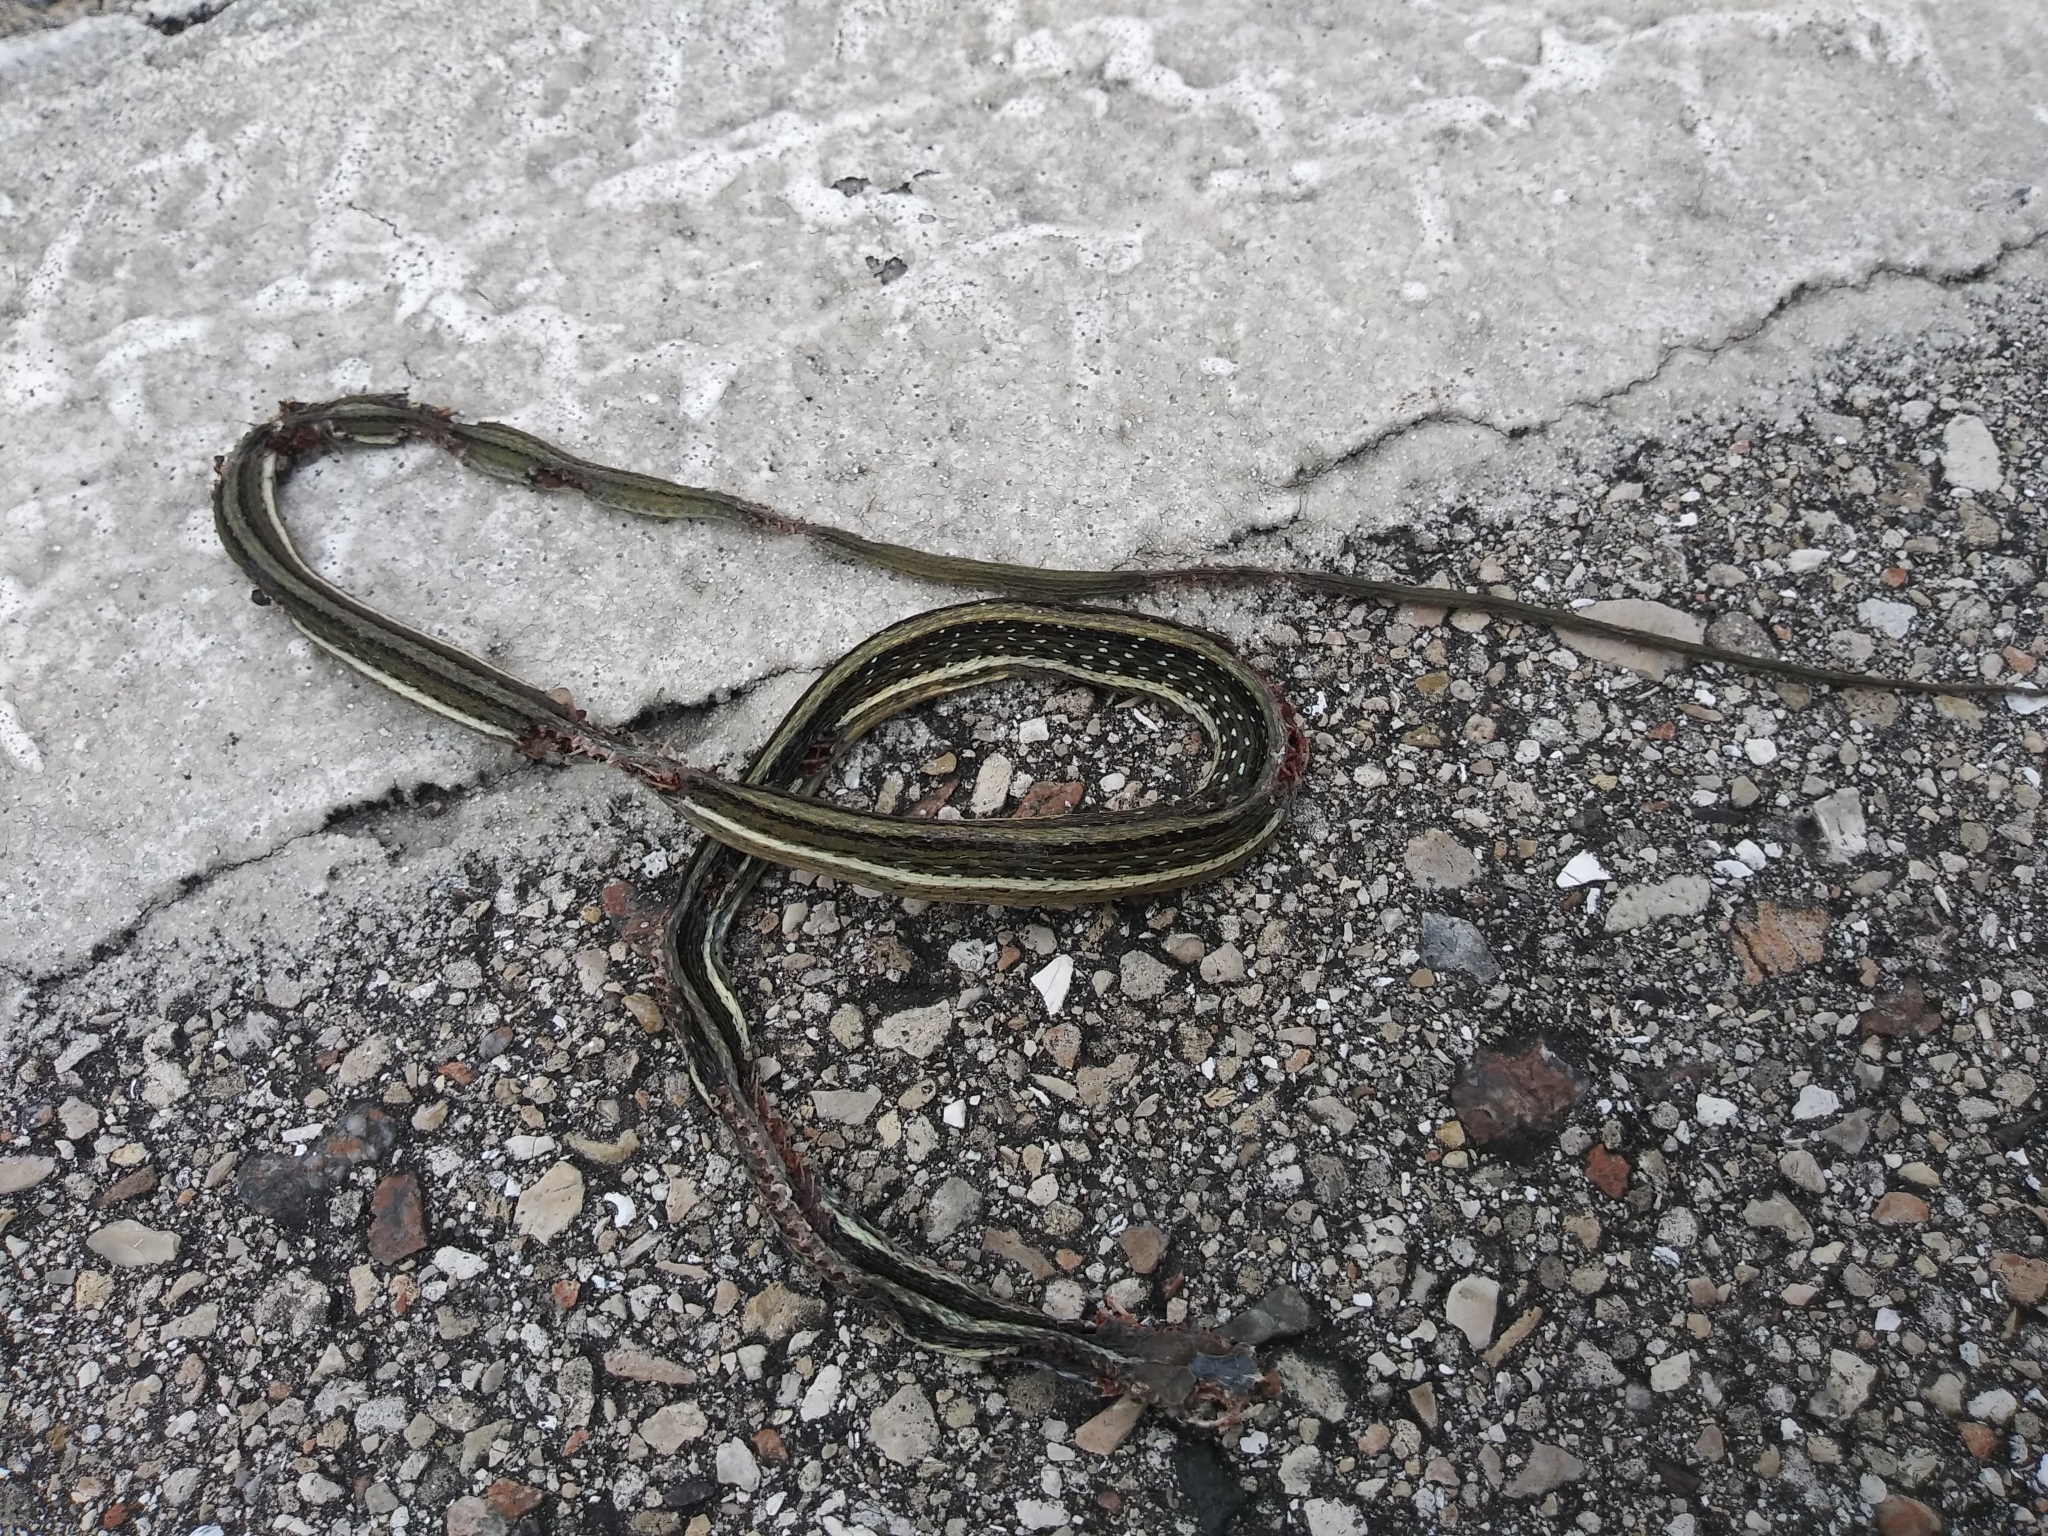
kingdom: Animalia
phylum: Chordata
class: Squamata
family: Colubridae
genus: Thamnophis
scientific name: Thamnophis saurita
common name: Eastern ribbonsnake
